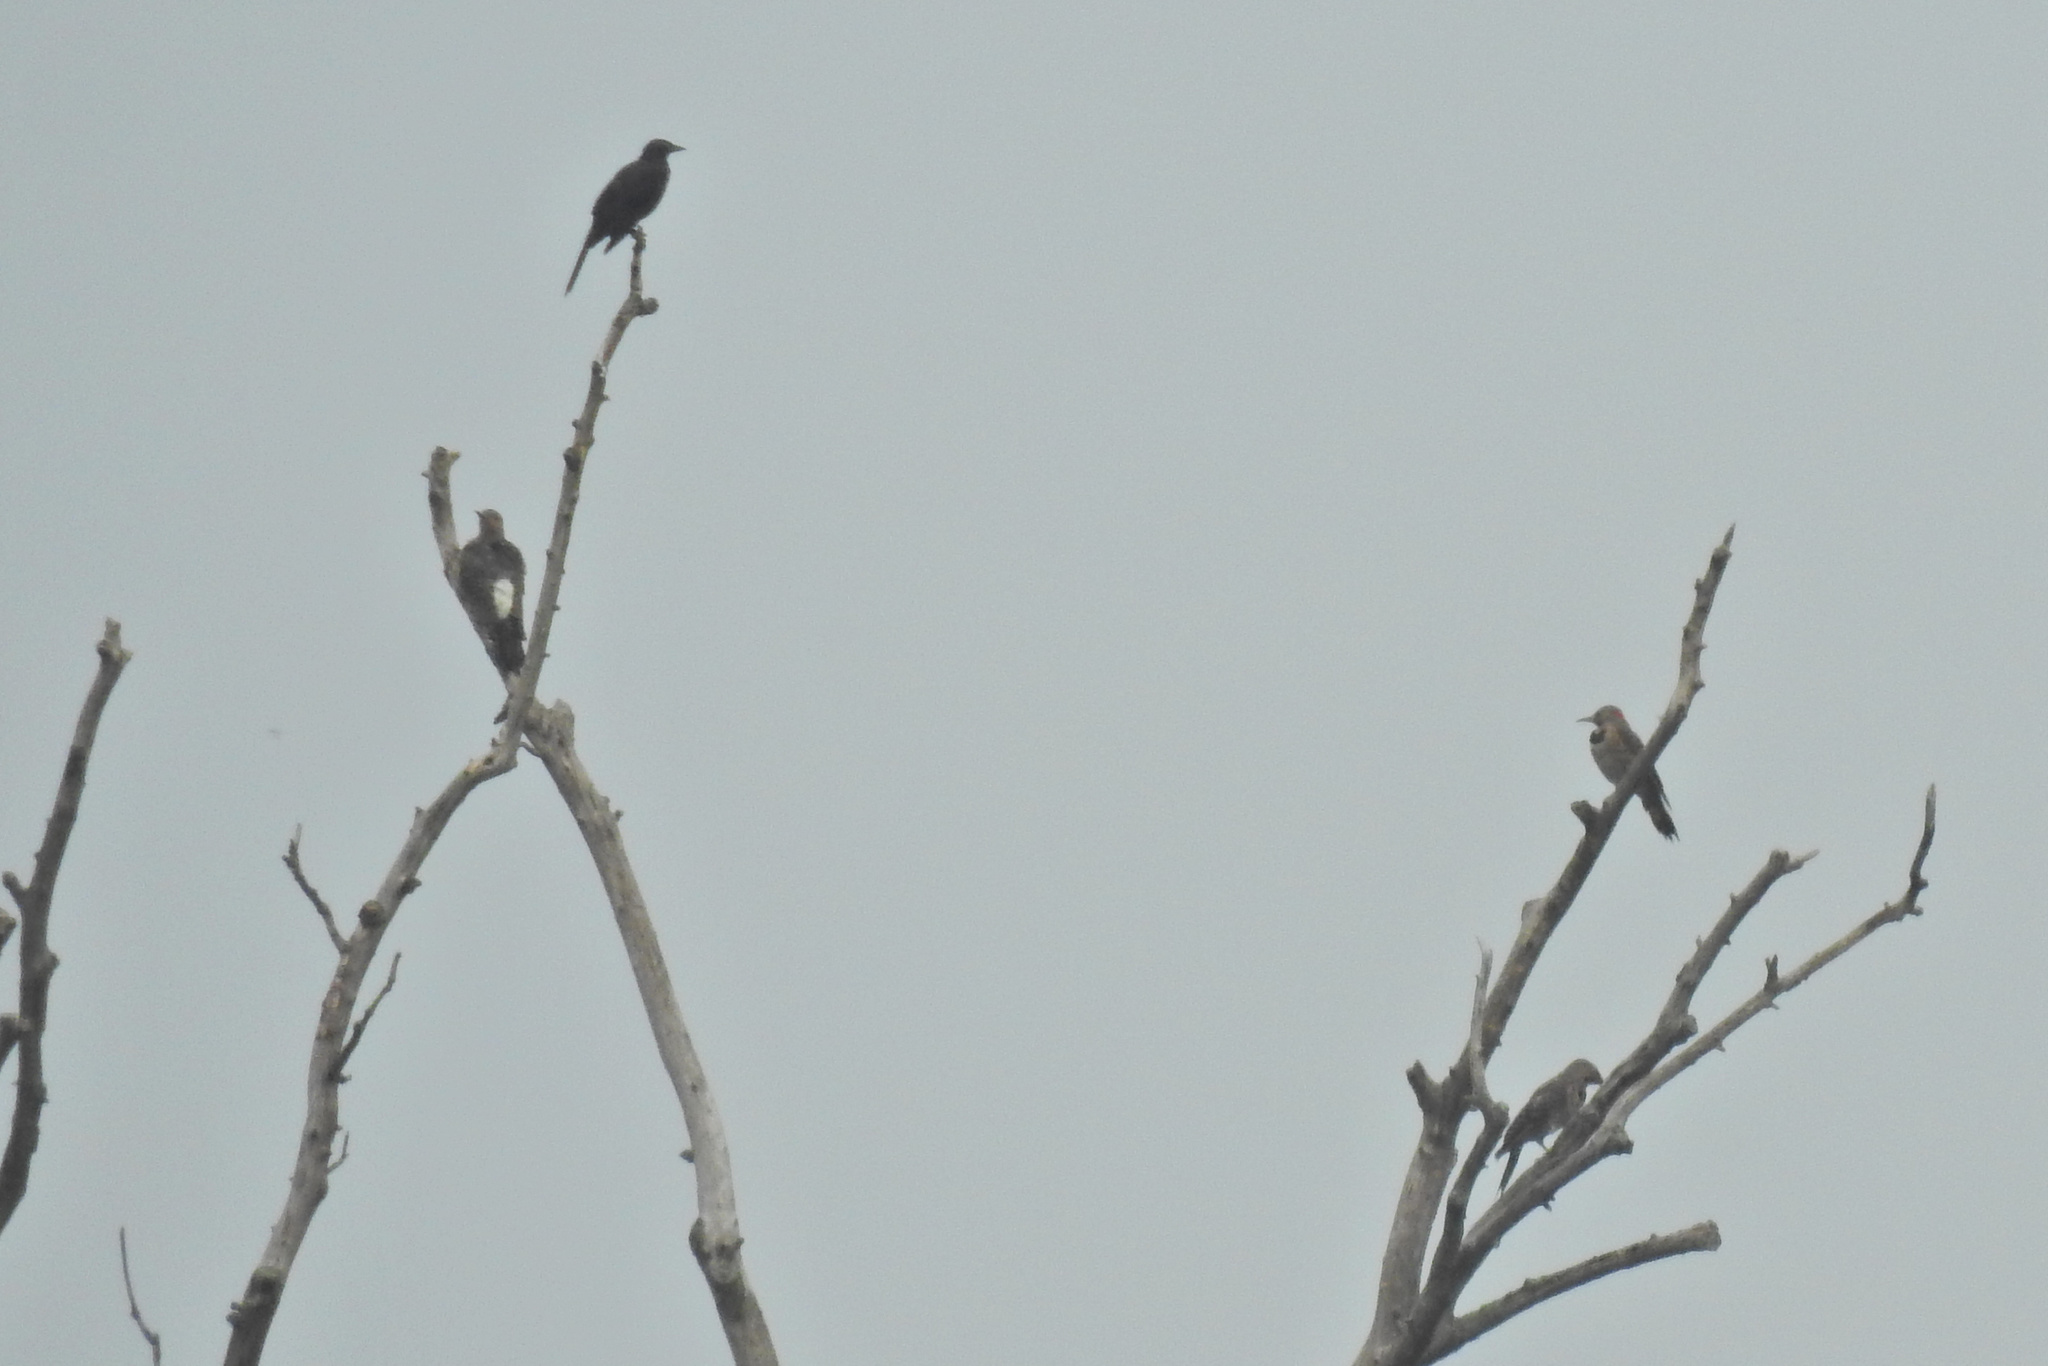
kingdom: Animalia
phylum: Chordata
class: Aves
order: Piciformes
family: Picidae
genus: Colaptes
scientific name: Colaptes auratus
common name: Northern flicker
